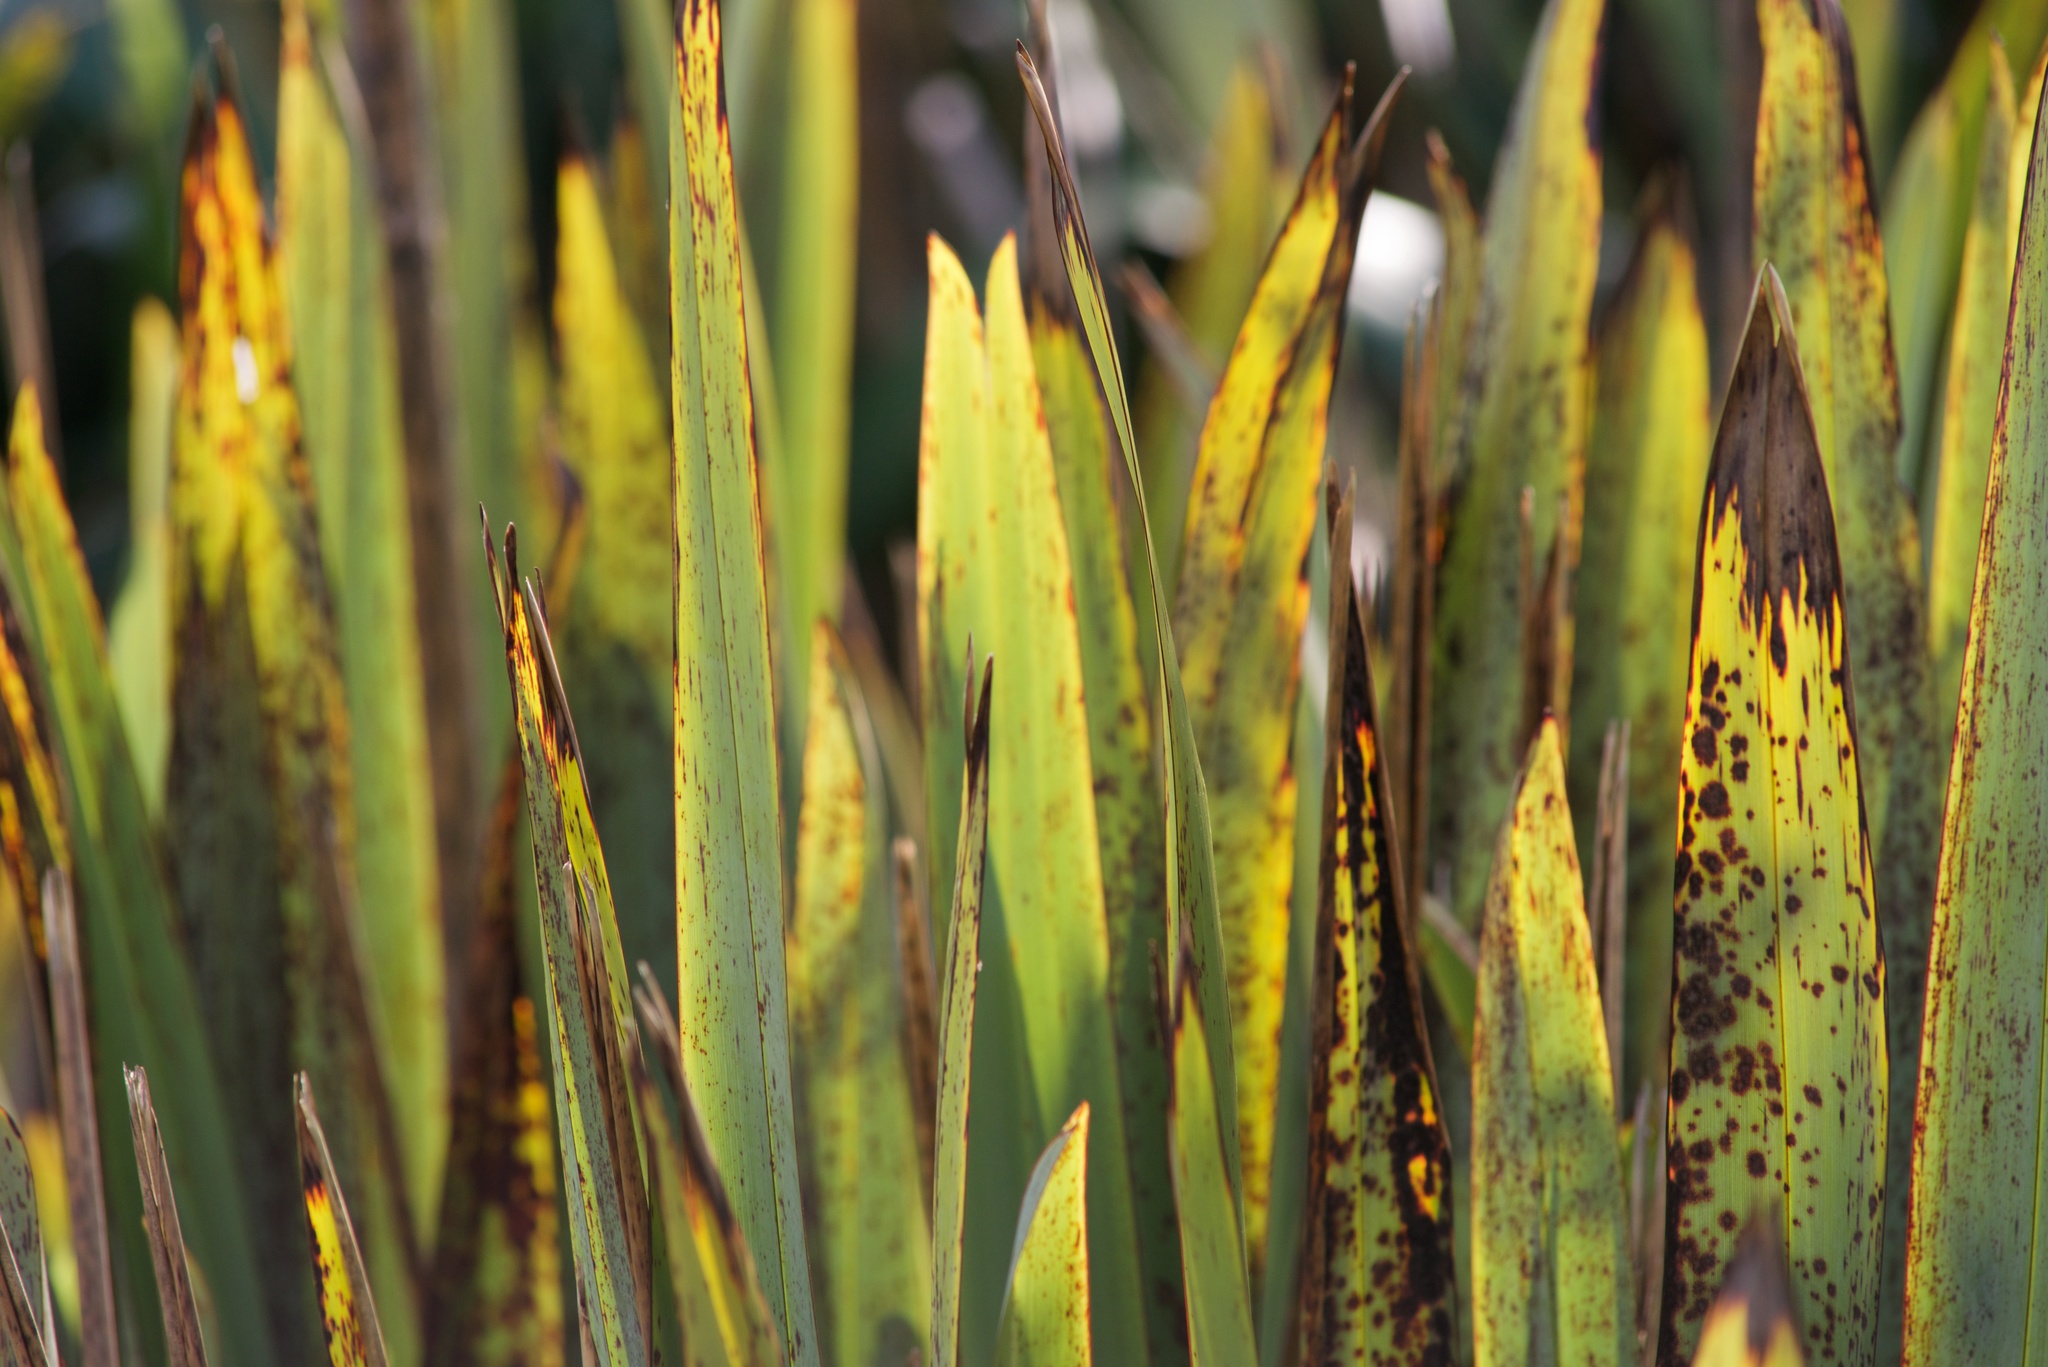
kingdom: Plantae
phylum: Tracheophyta
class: Liliopsida
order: Asparagales
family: Asphodelaceae
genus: Phormium
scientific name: Phormium tenax
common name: New zealand flax
